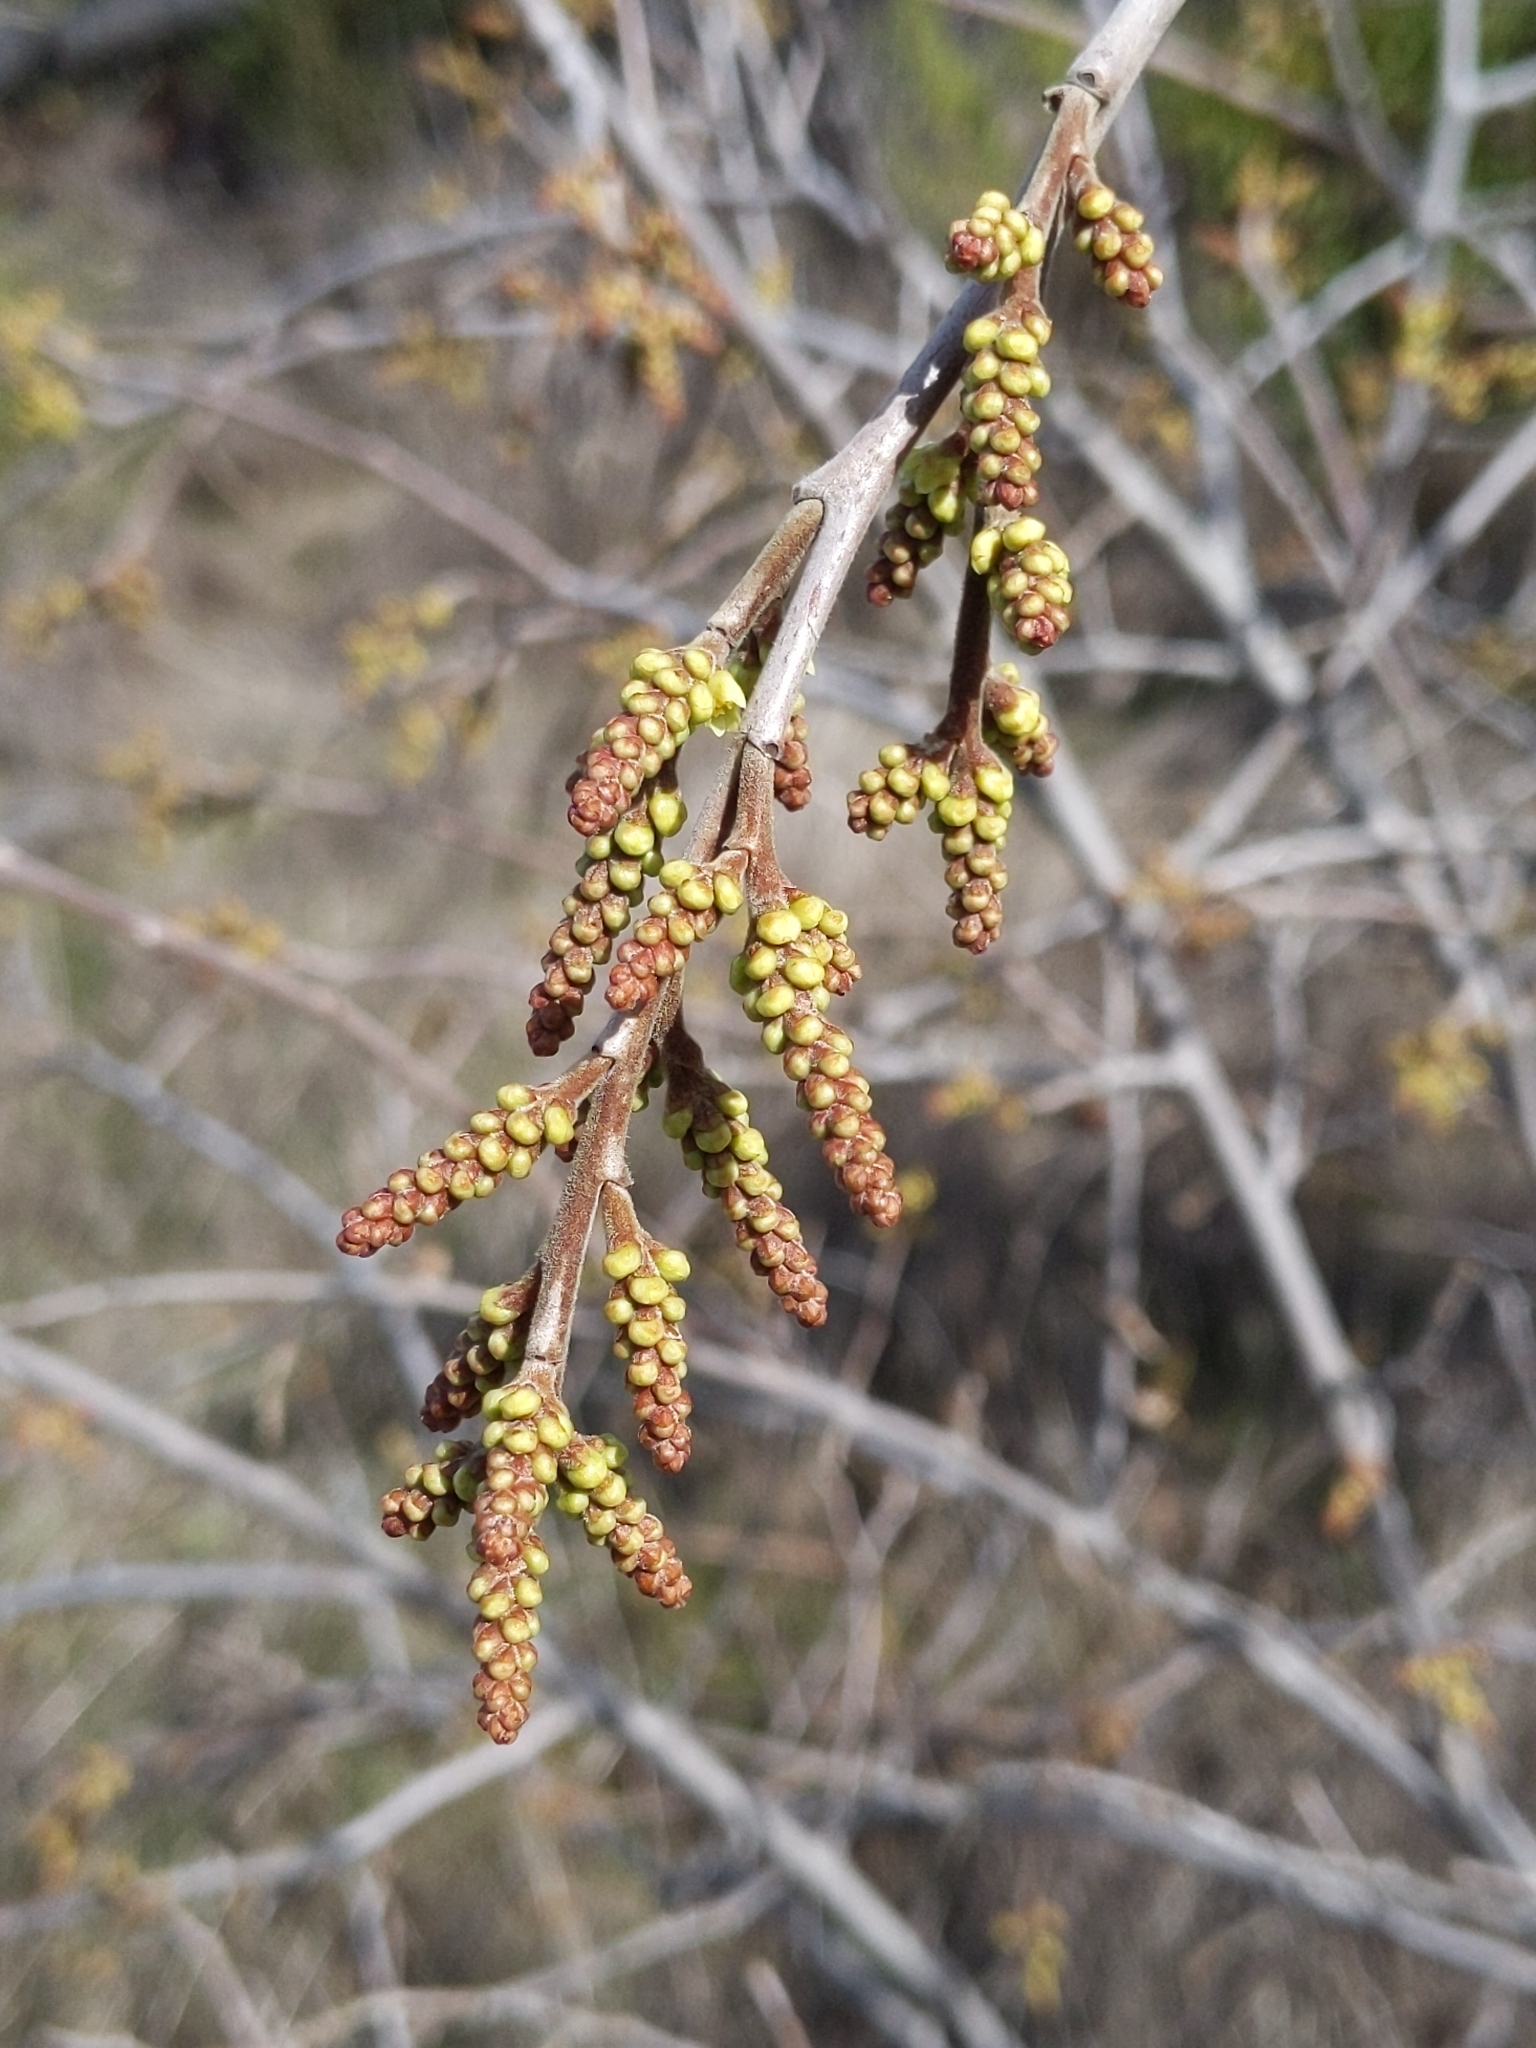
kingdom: Plantae
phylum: Tracheophyta
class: Magnoliopsida
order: Sapindales
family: Anacardiaceae
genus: Rhus
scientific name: Rhus aromatica
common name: Aromatic sumac
